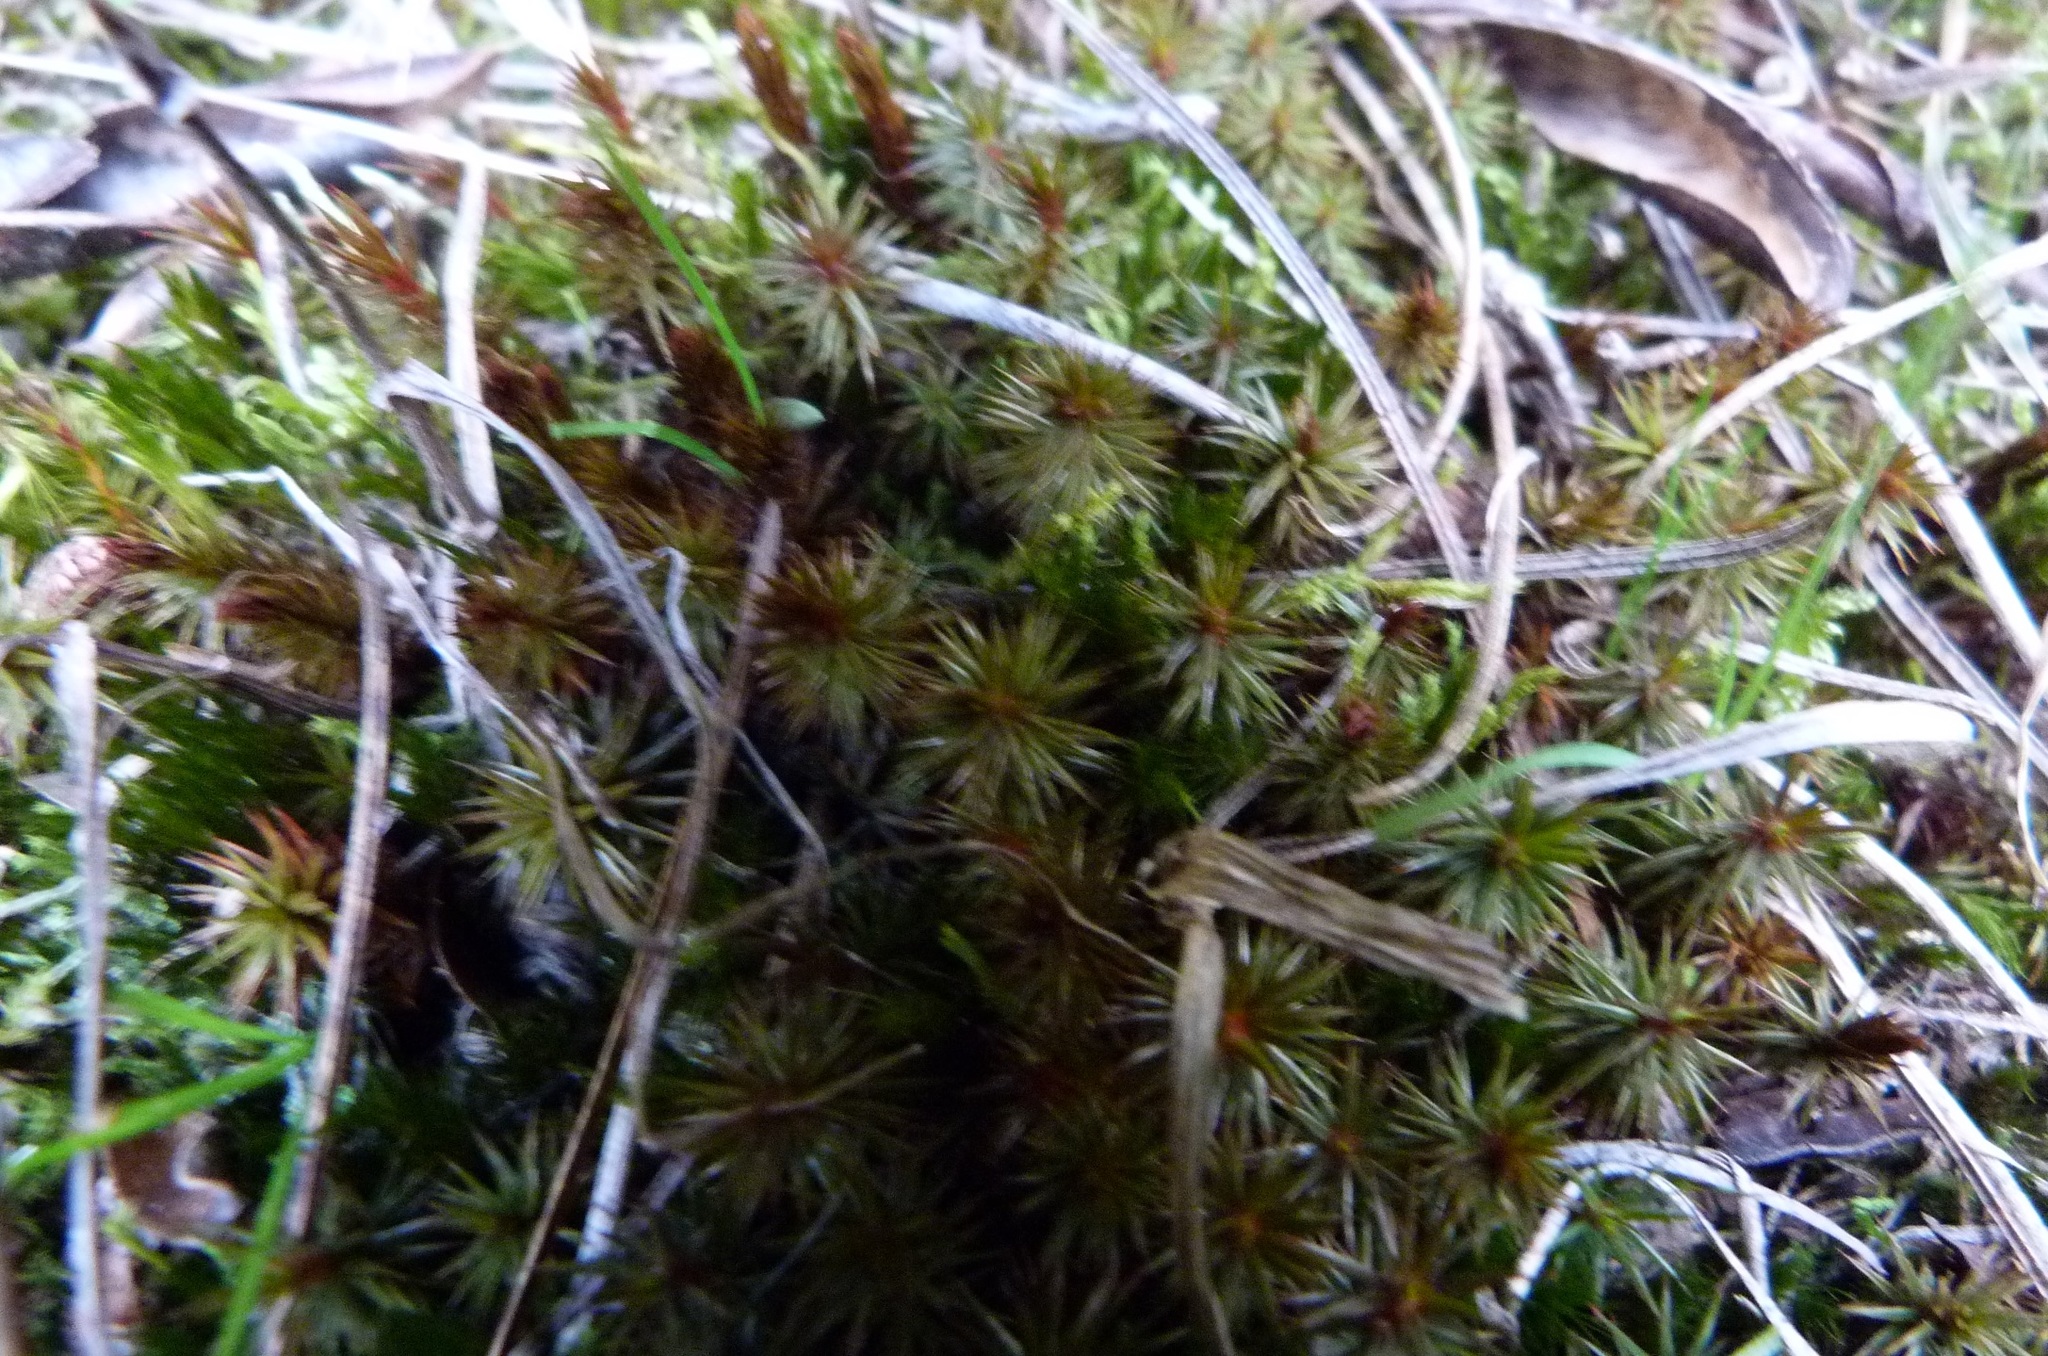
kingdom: Plantae
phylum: Bryophyta
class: Polytrichopsida
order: Polytrichales
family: Polytrichaceae
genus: Polytrichum
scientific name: Polytrichum juniperinum
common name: Juniper haircap moss
